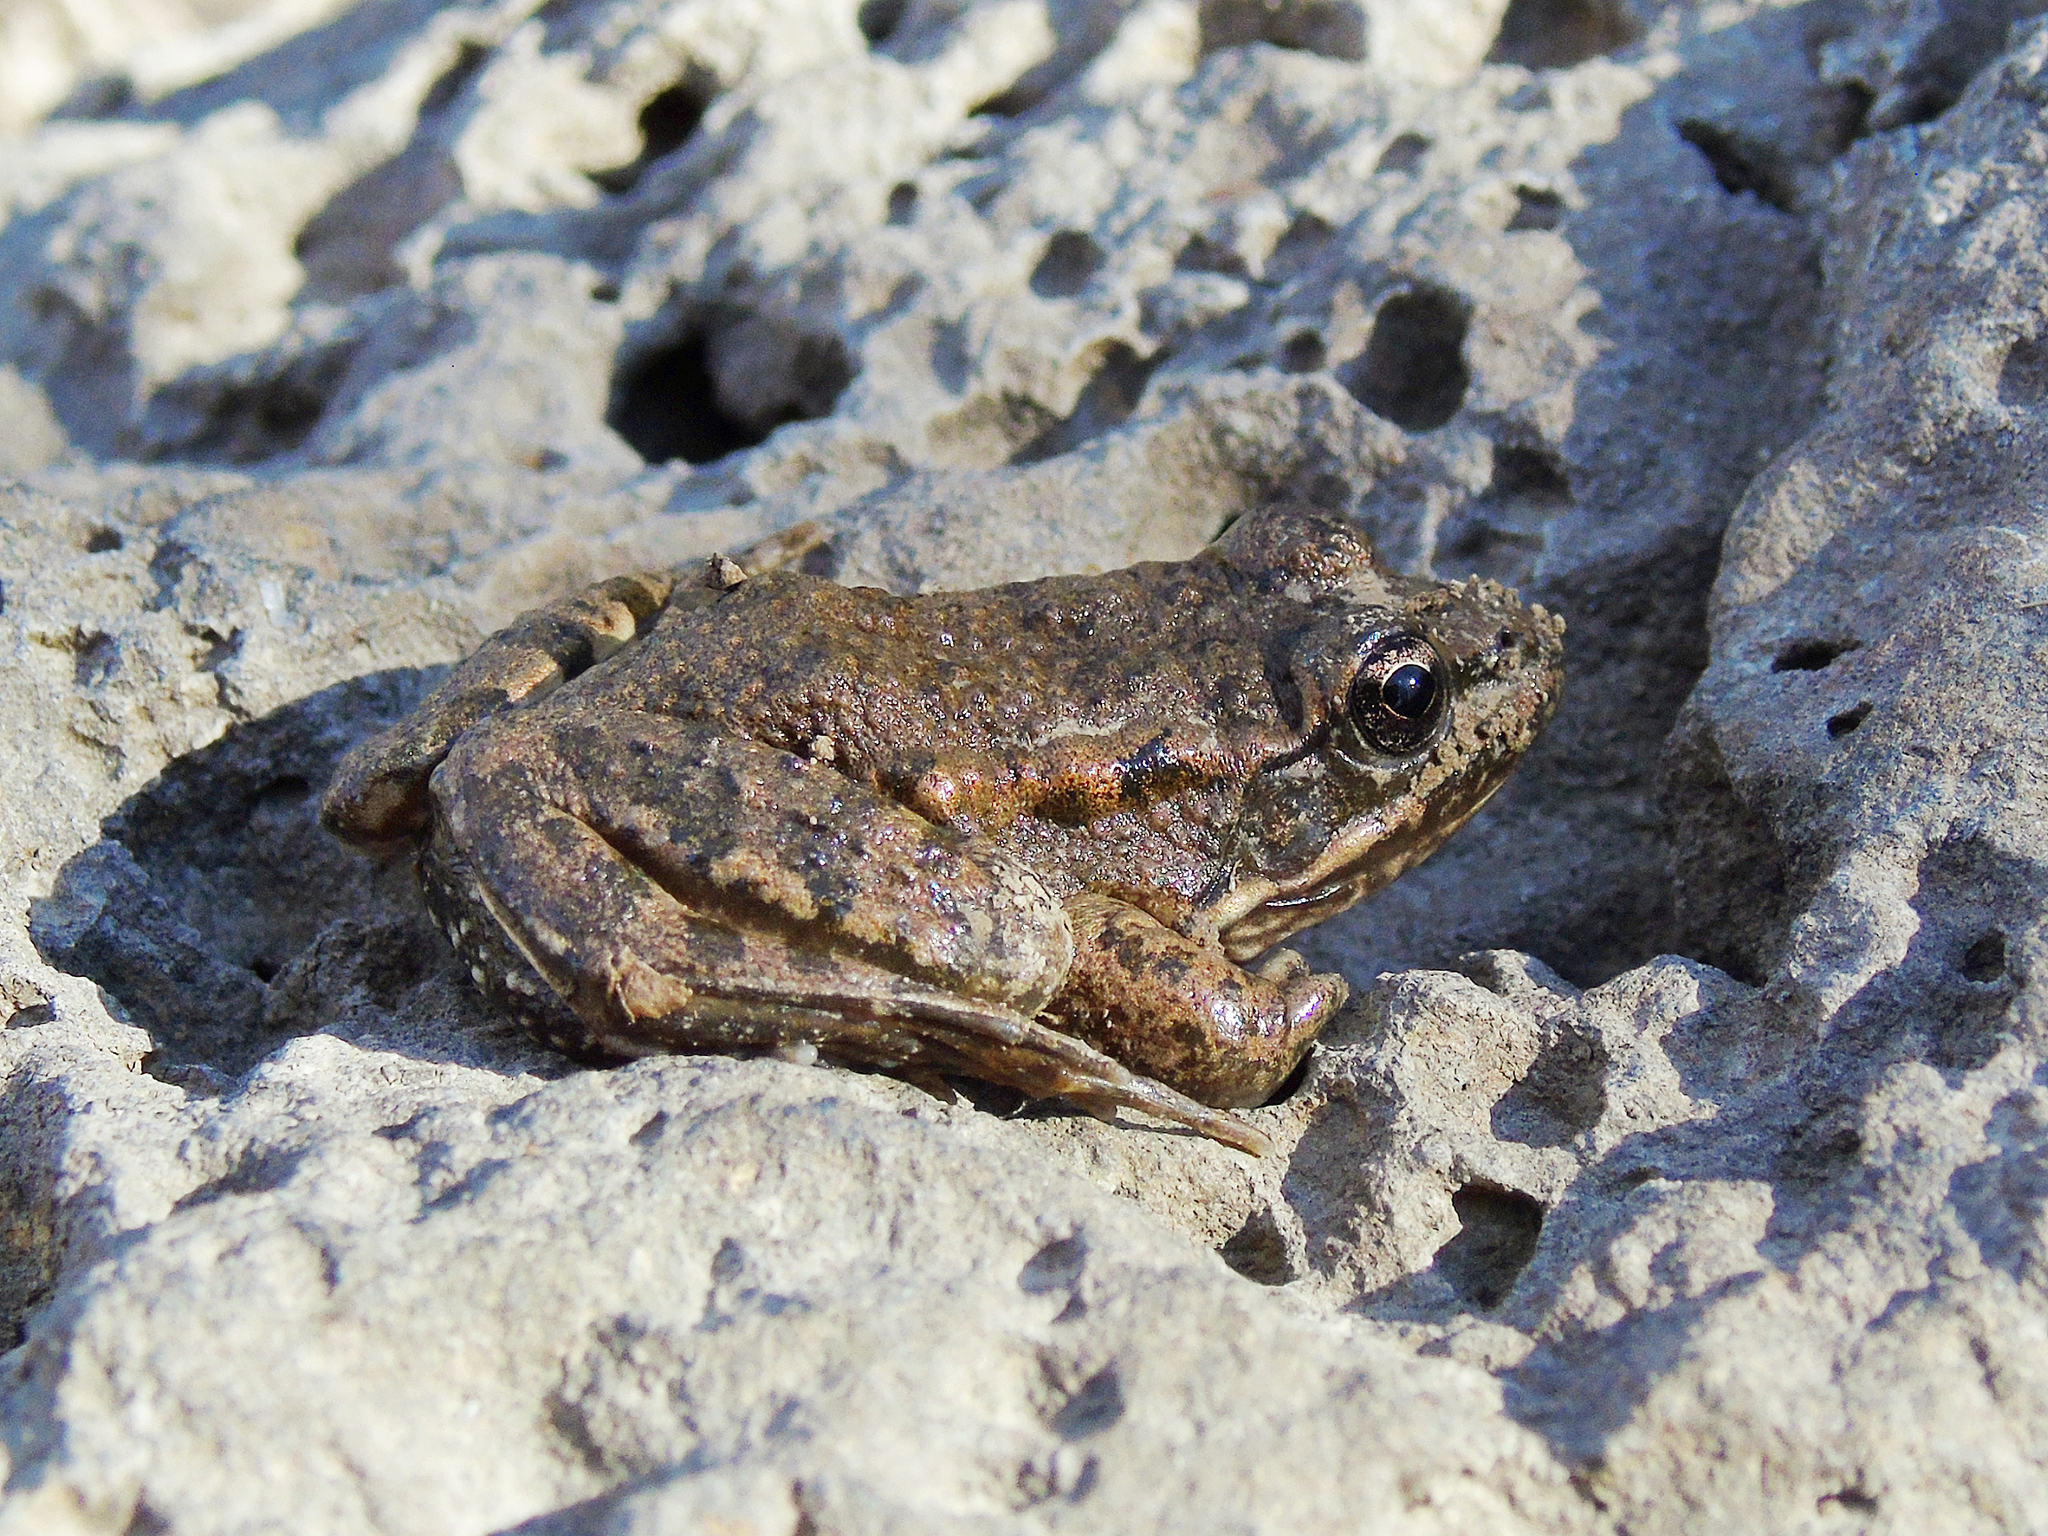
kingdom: Animalia
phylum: Chordata
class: Amphibia
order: Anura
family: Ranidae
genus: Pelophylax
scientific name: Pelophylax ridibundus
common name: Marsh frog
